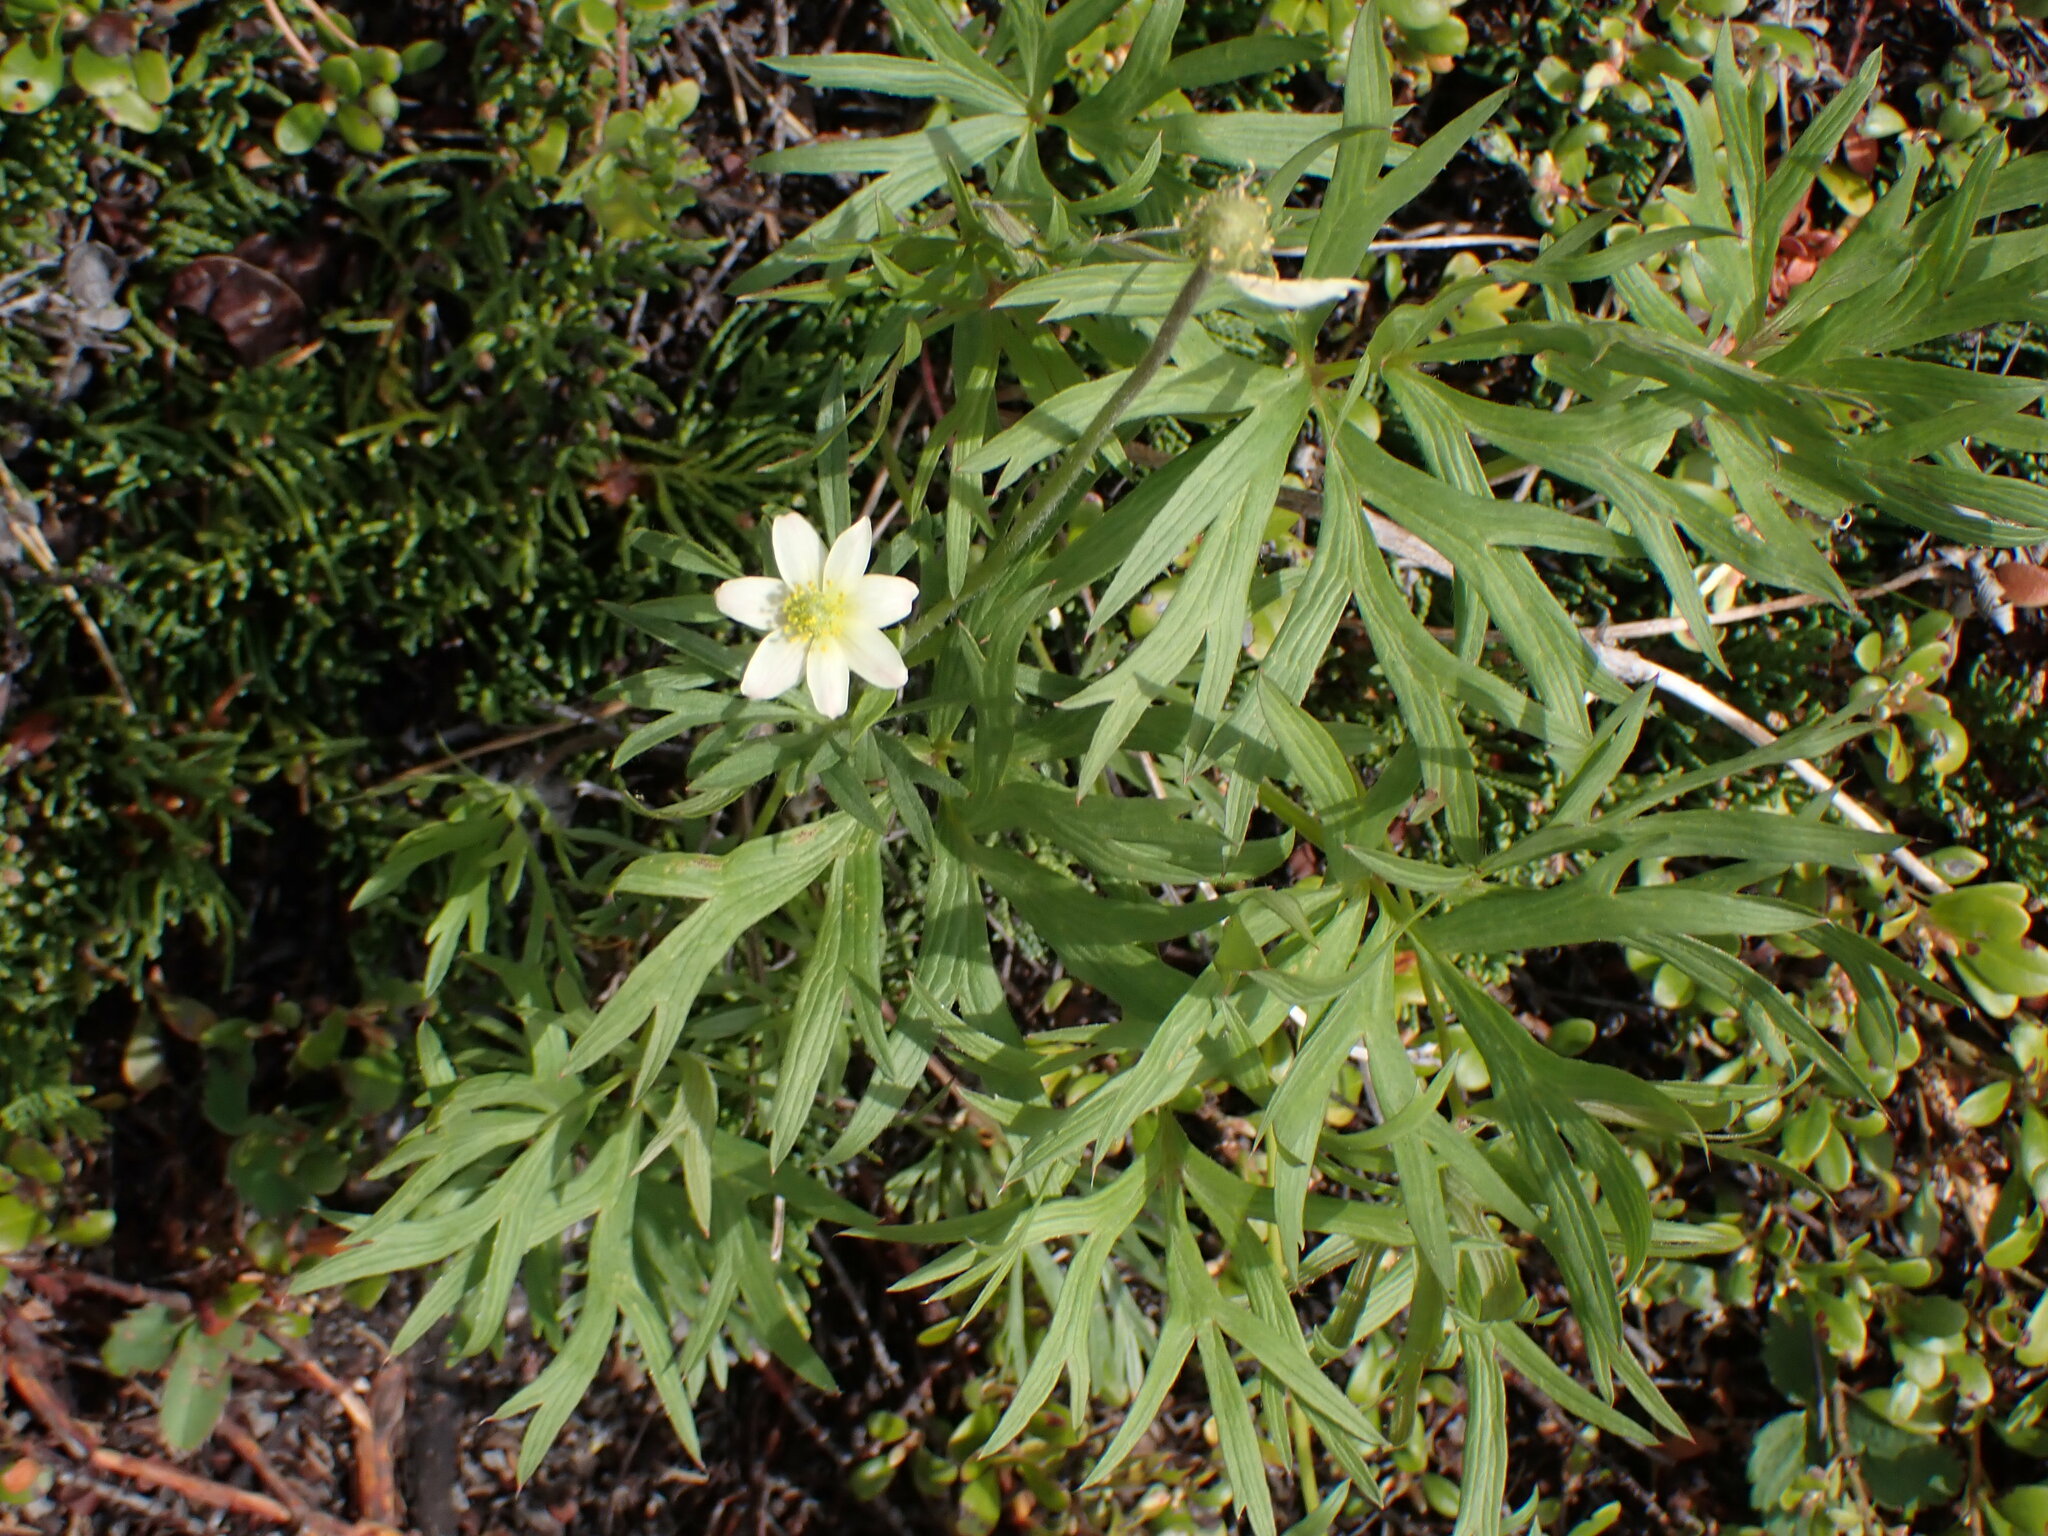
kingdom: Plantae
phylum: Tracheophyta
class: Magnoliopsida
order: Ranunculales
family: Ranunculaceae
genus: Anemone
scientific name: Anemone multifida
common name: Bird's-foot anemone
